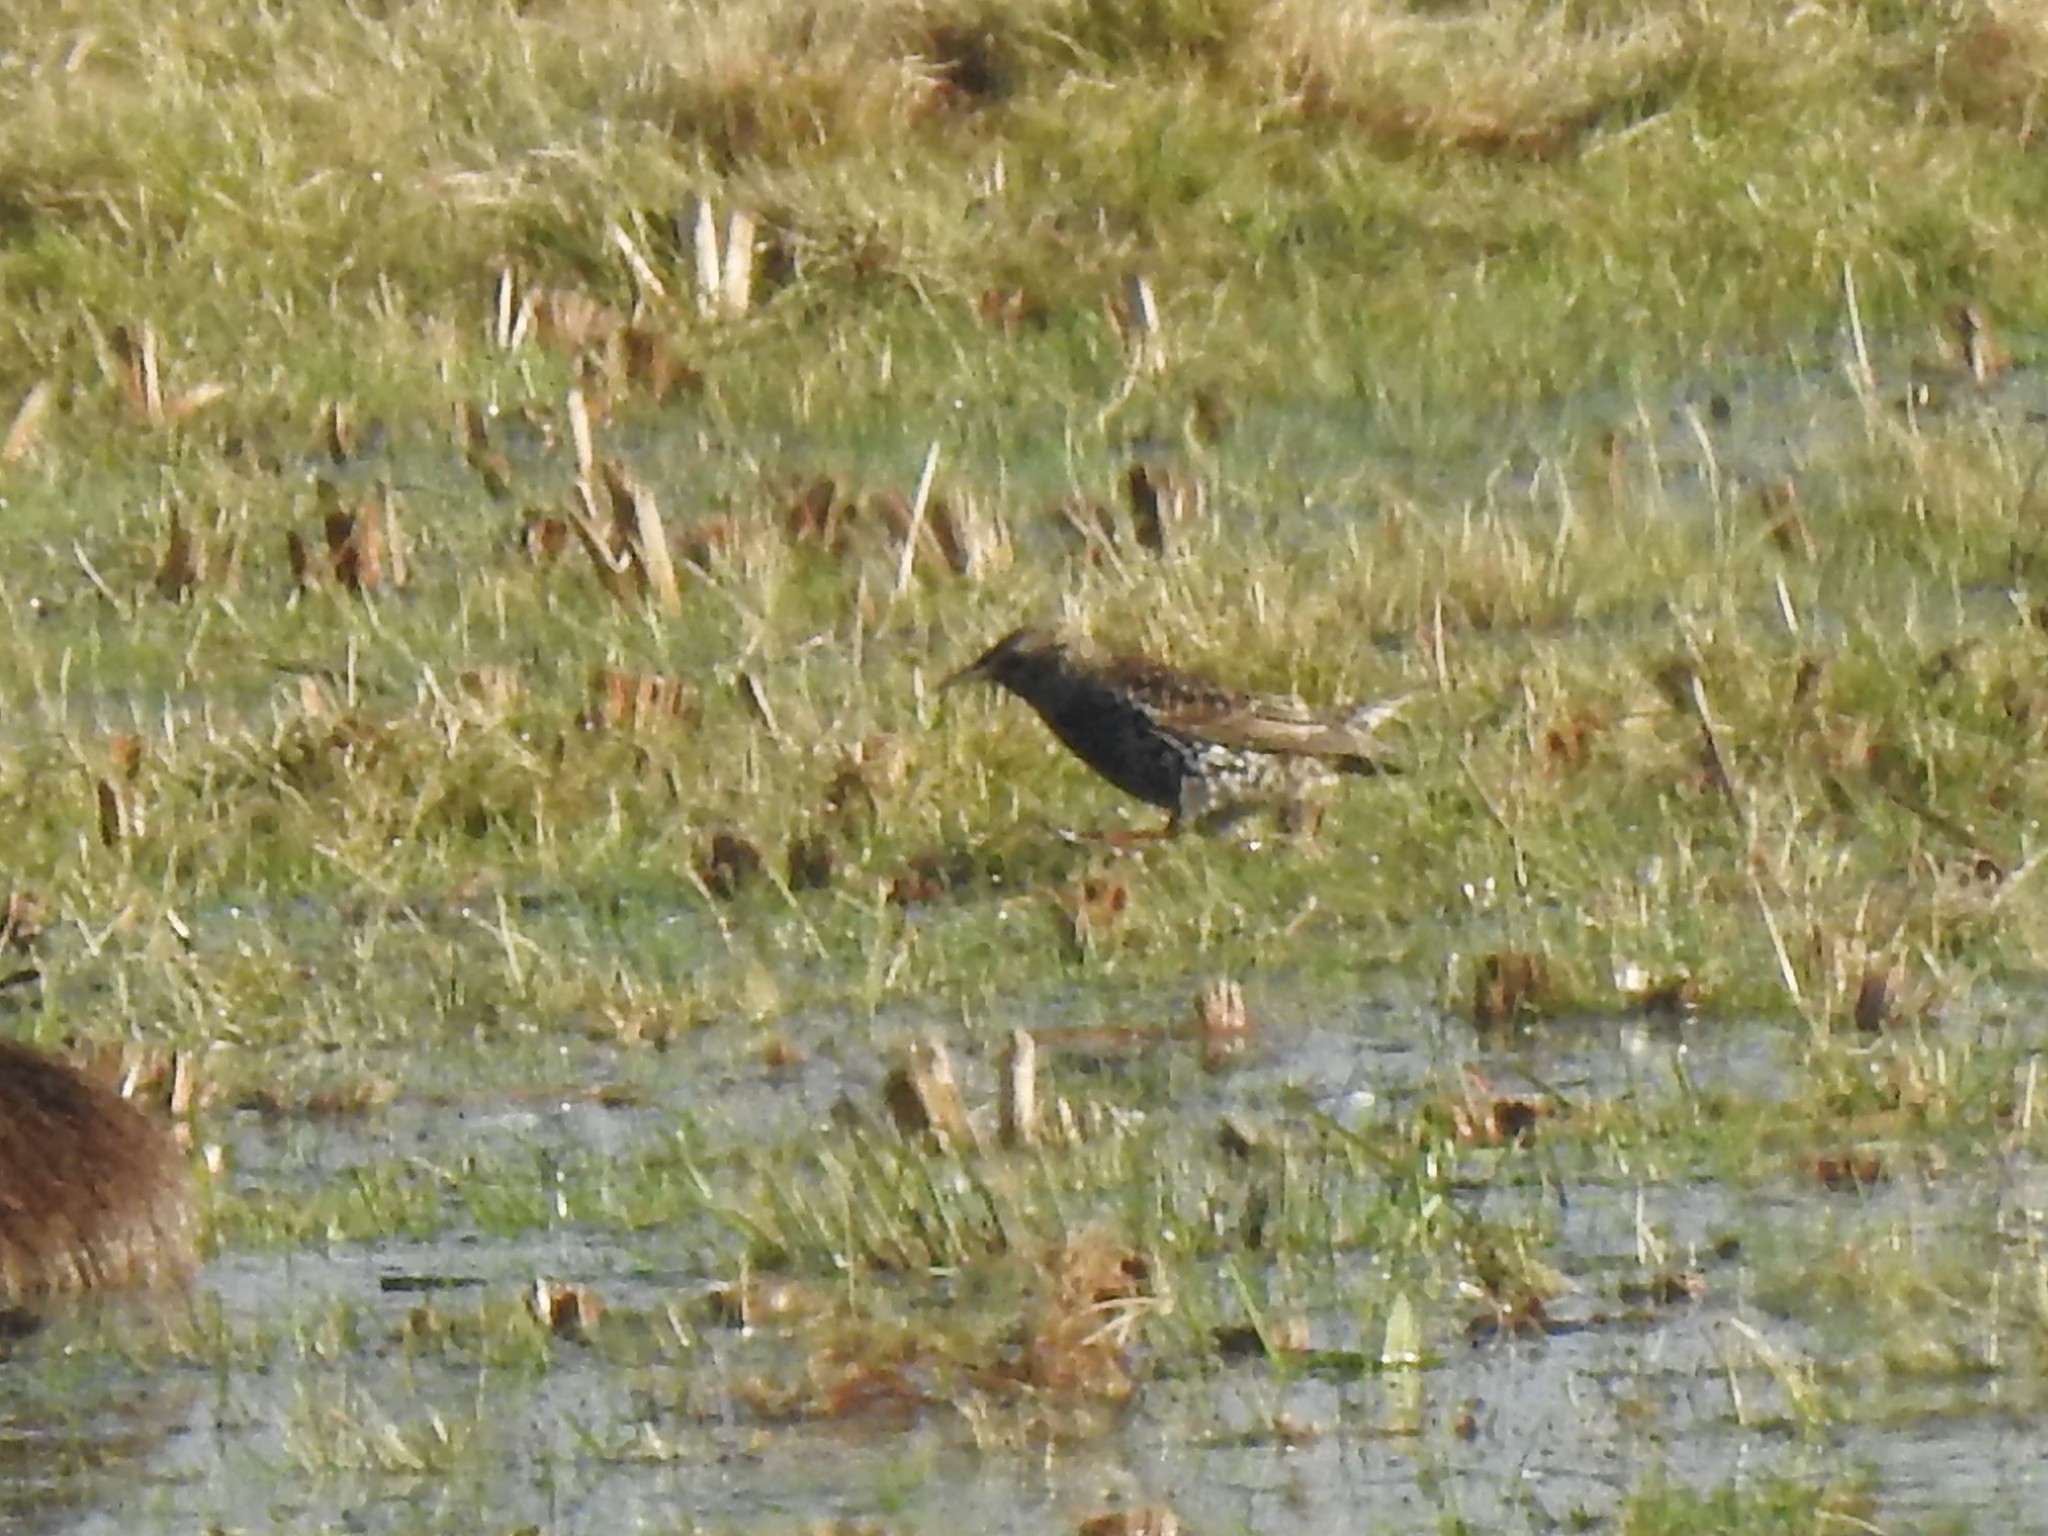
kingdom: Animalia
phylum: Chordata
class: Aves
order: Passeriformes
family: Sturnidae
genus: Sturnus
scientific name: Sturnus vulgaris
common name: Common starling
